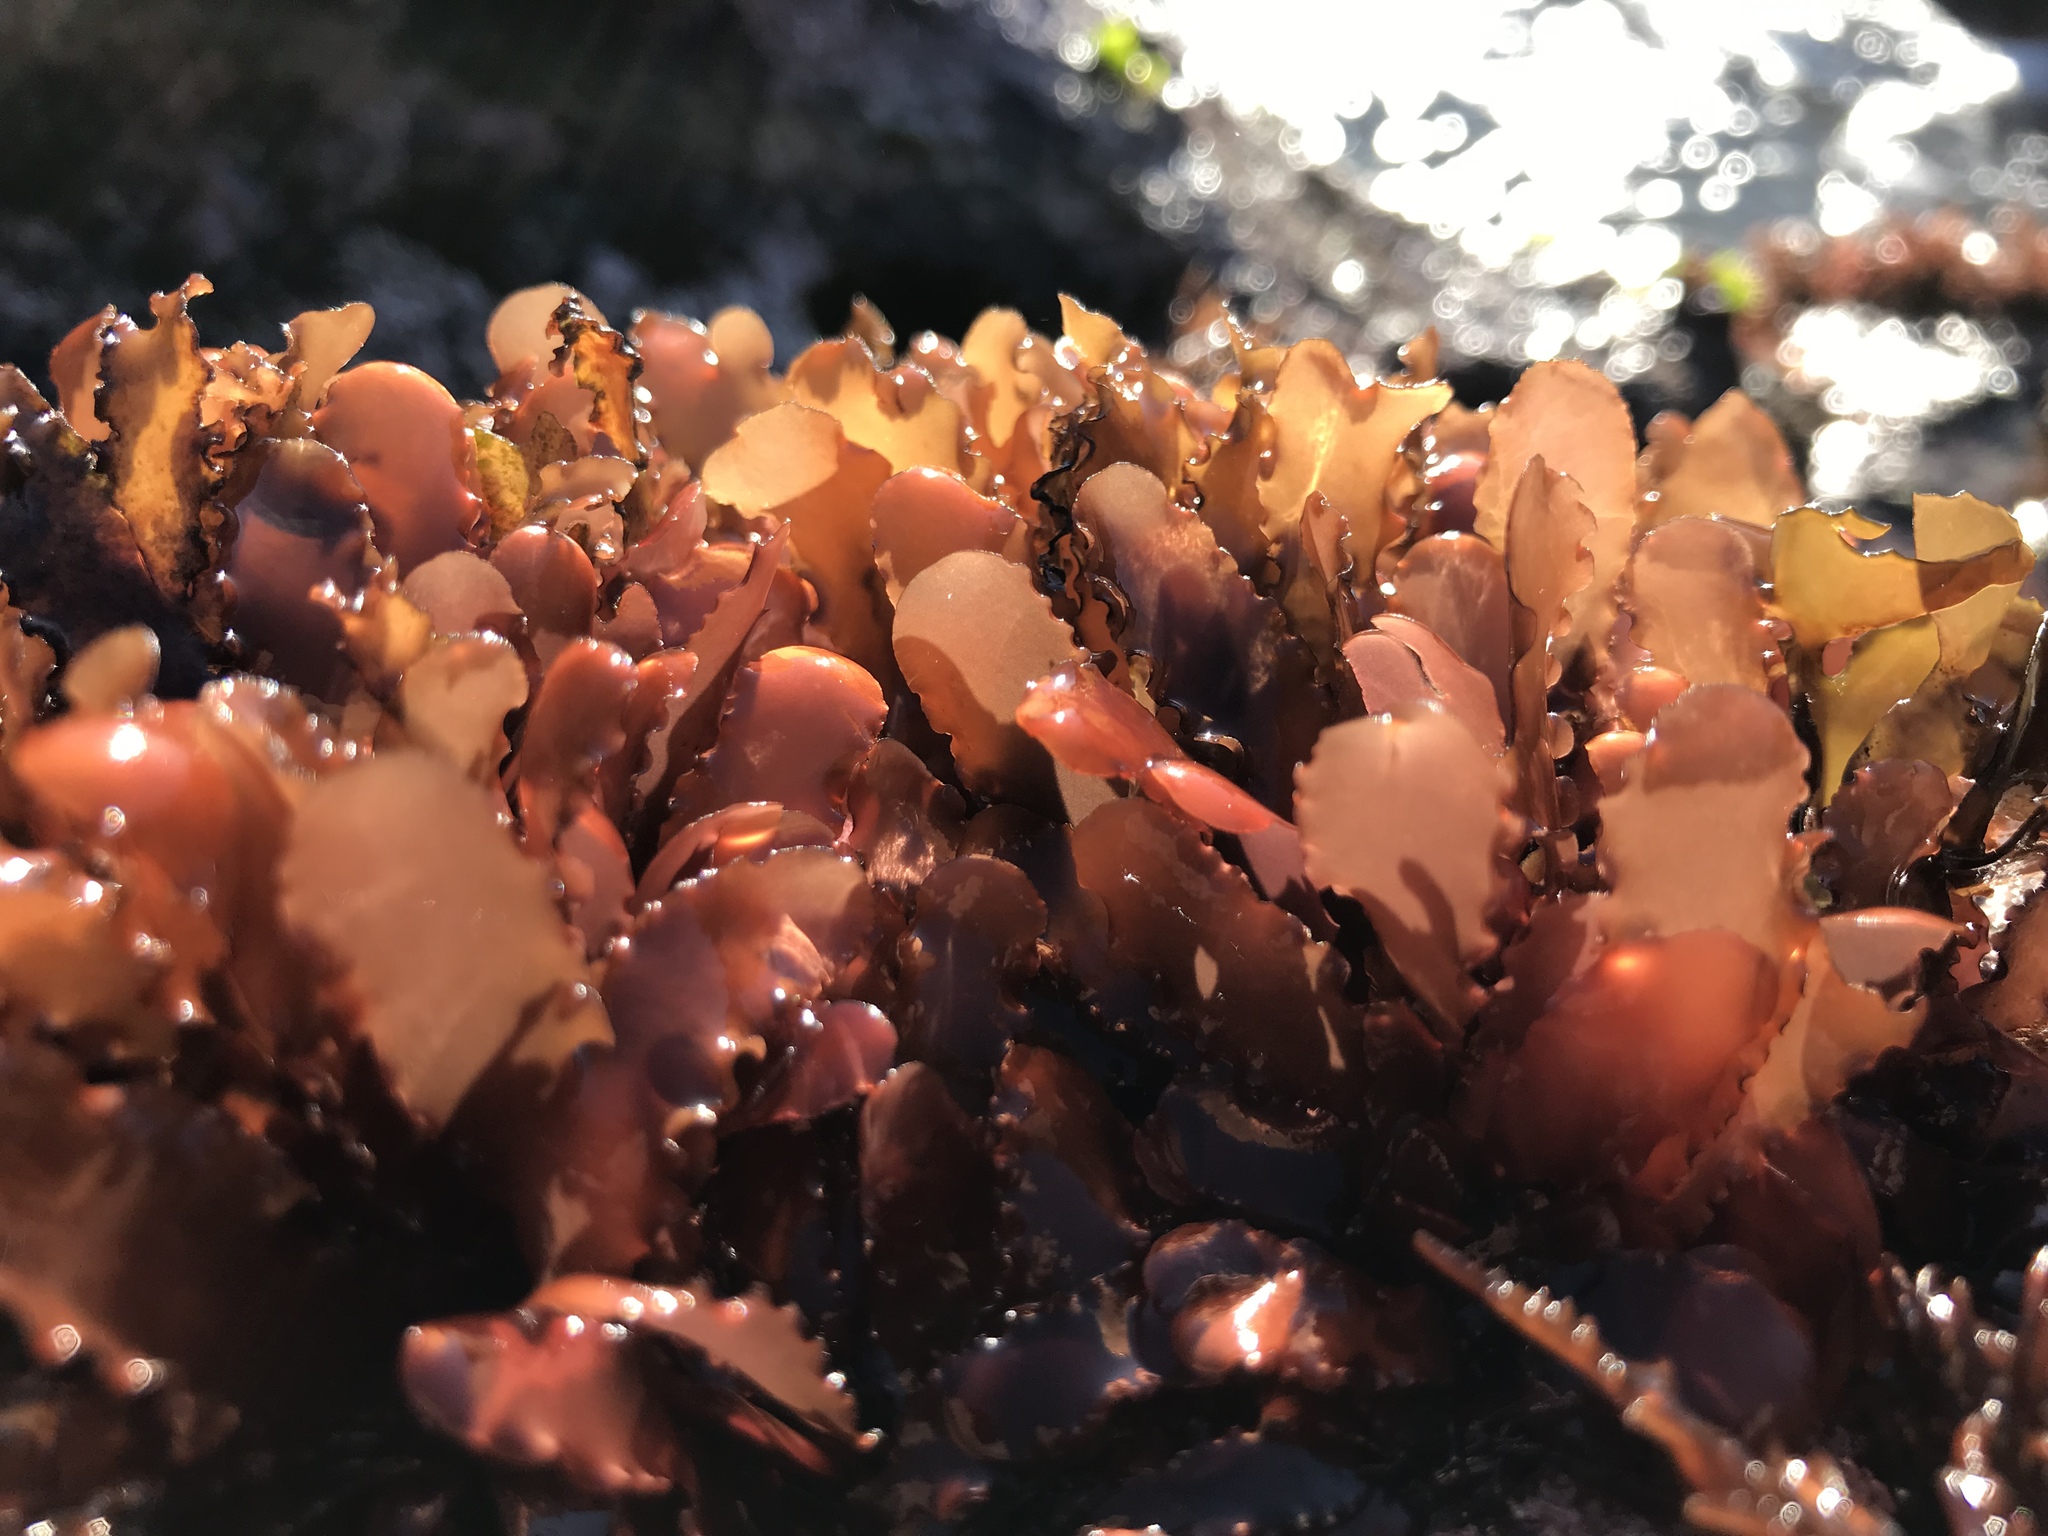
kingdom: Plantae
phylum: Rhodophyta
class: Florideophyceae
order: Gigartinales
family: Phyllophoraceae
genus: Schottera
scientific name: Schottera nicaeensis
